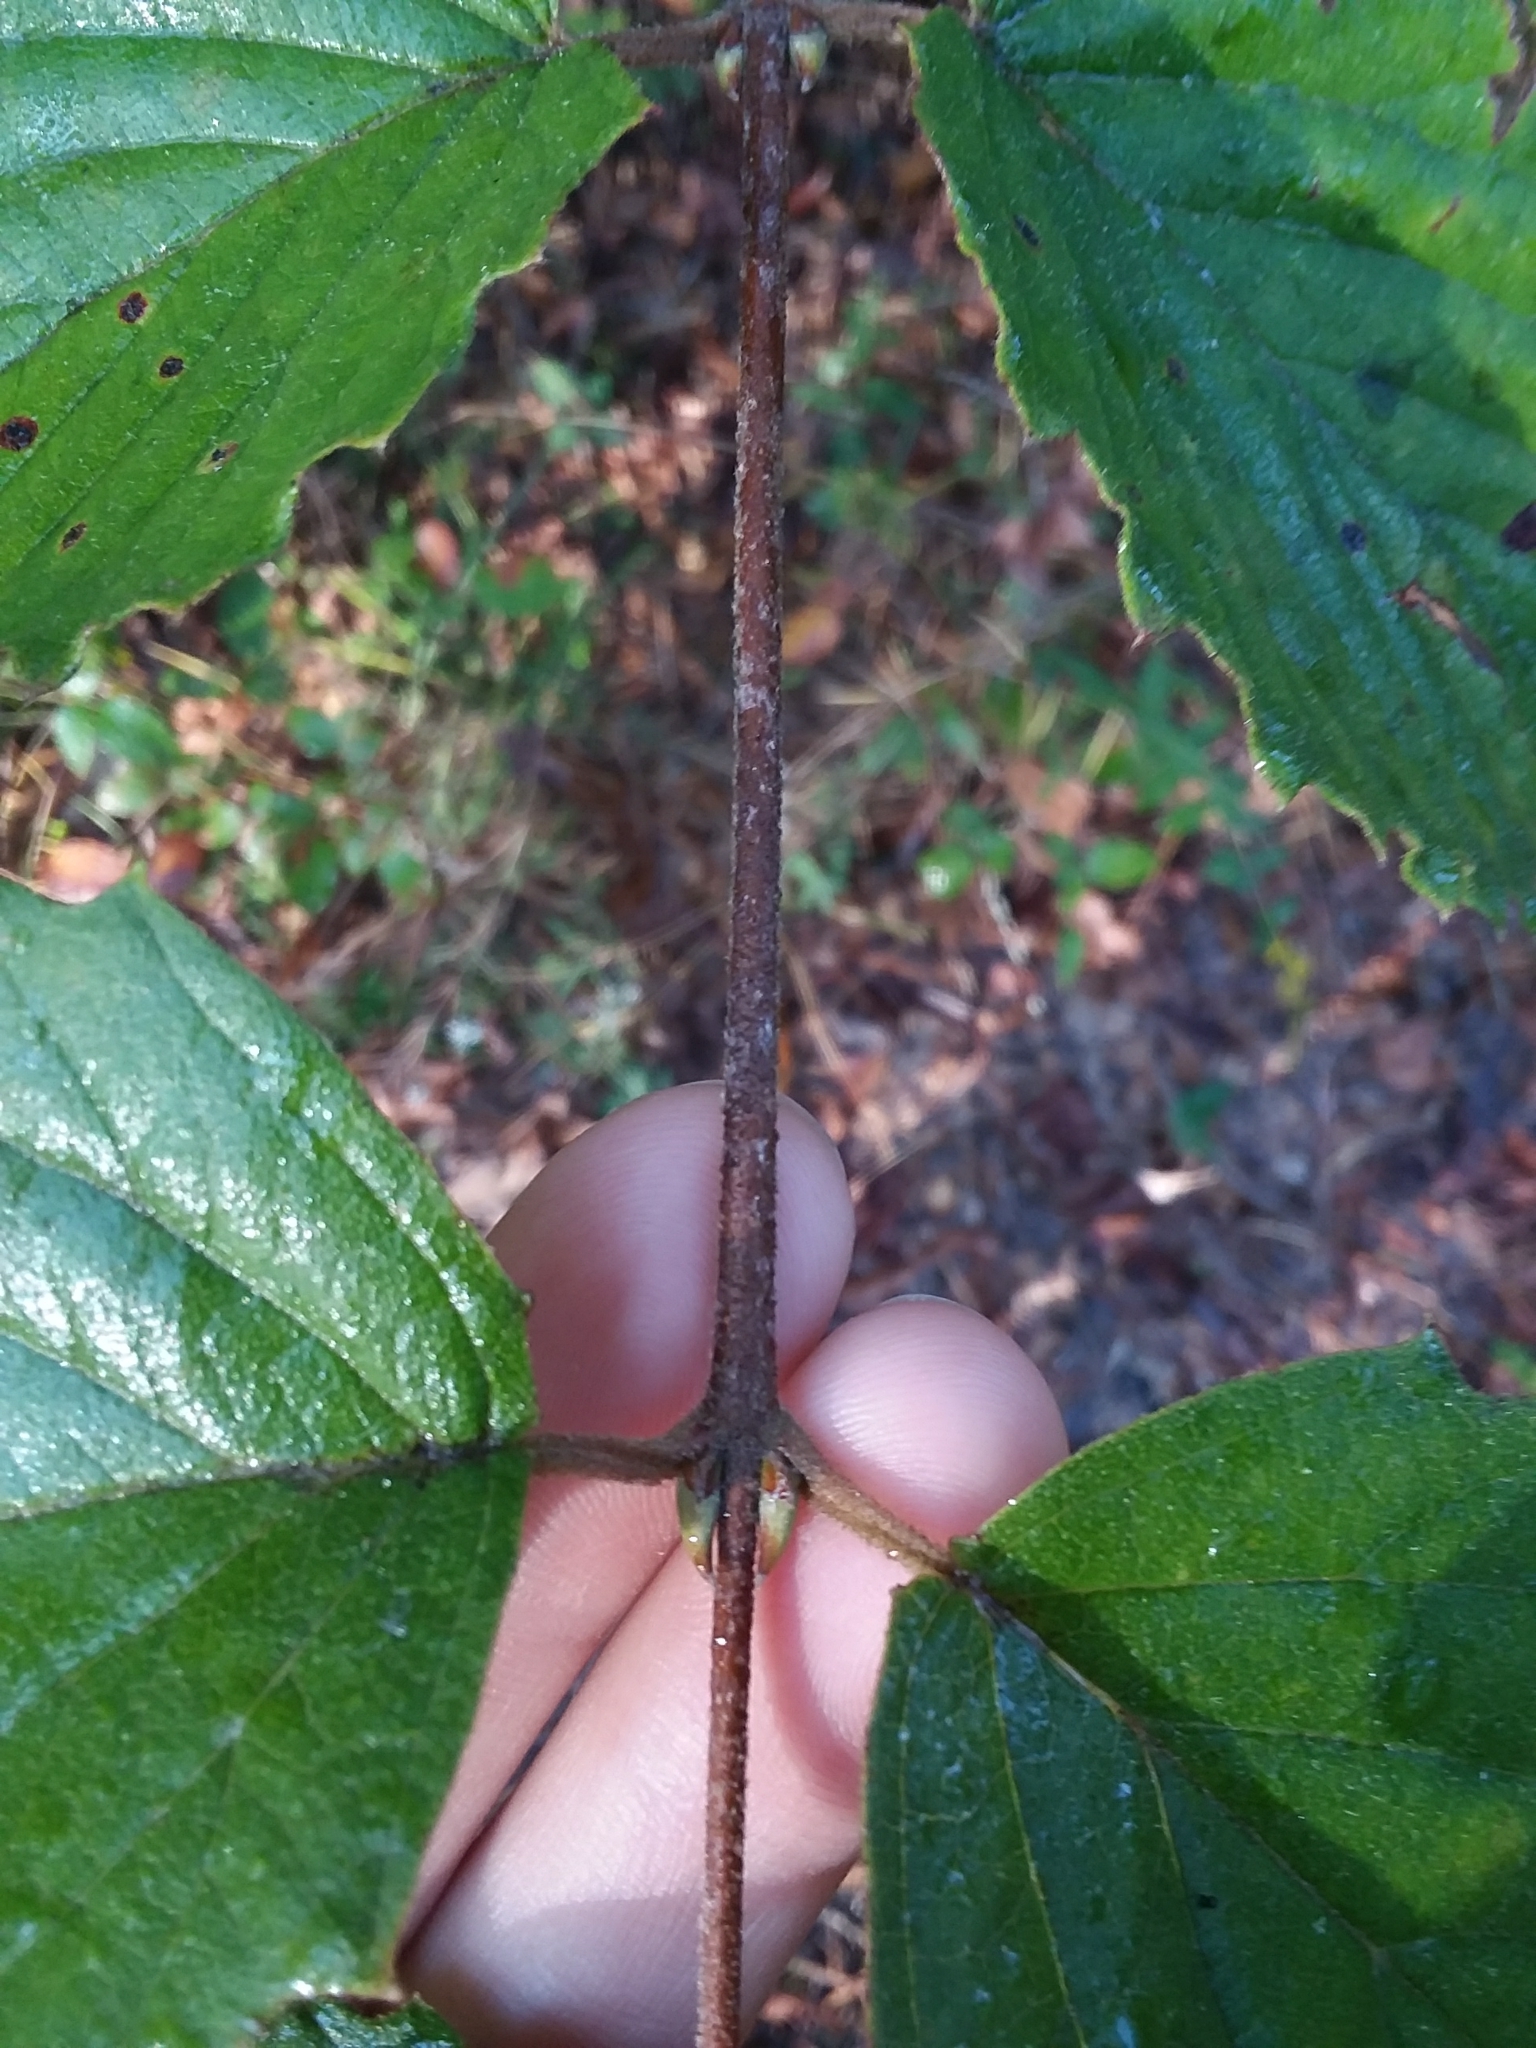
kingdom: Plantae
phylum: Tracheophyta
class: Magnoliopsida
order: Dipsacales
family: Viburnaceae
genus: Viburnum
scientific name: Viburnum scabrellum
